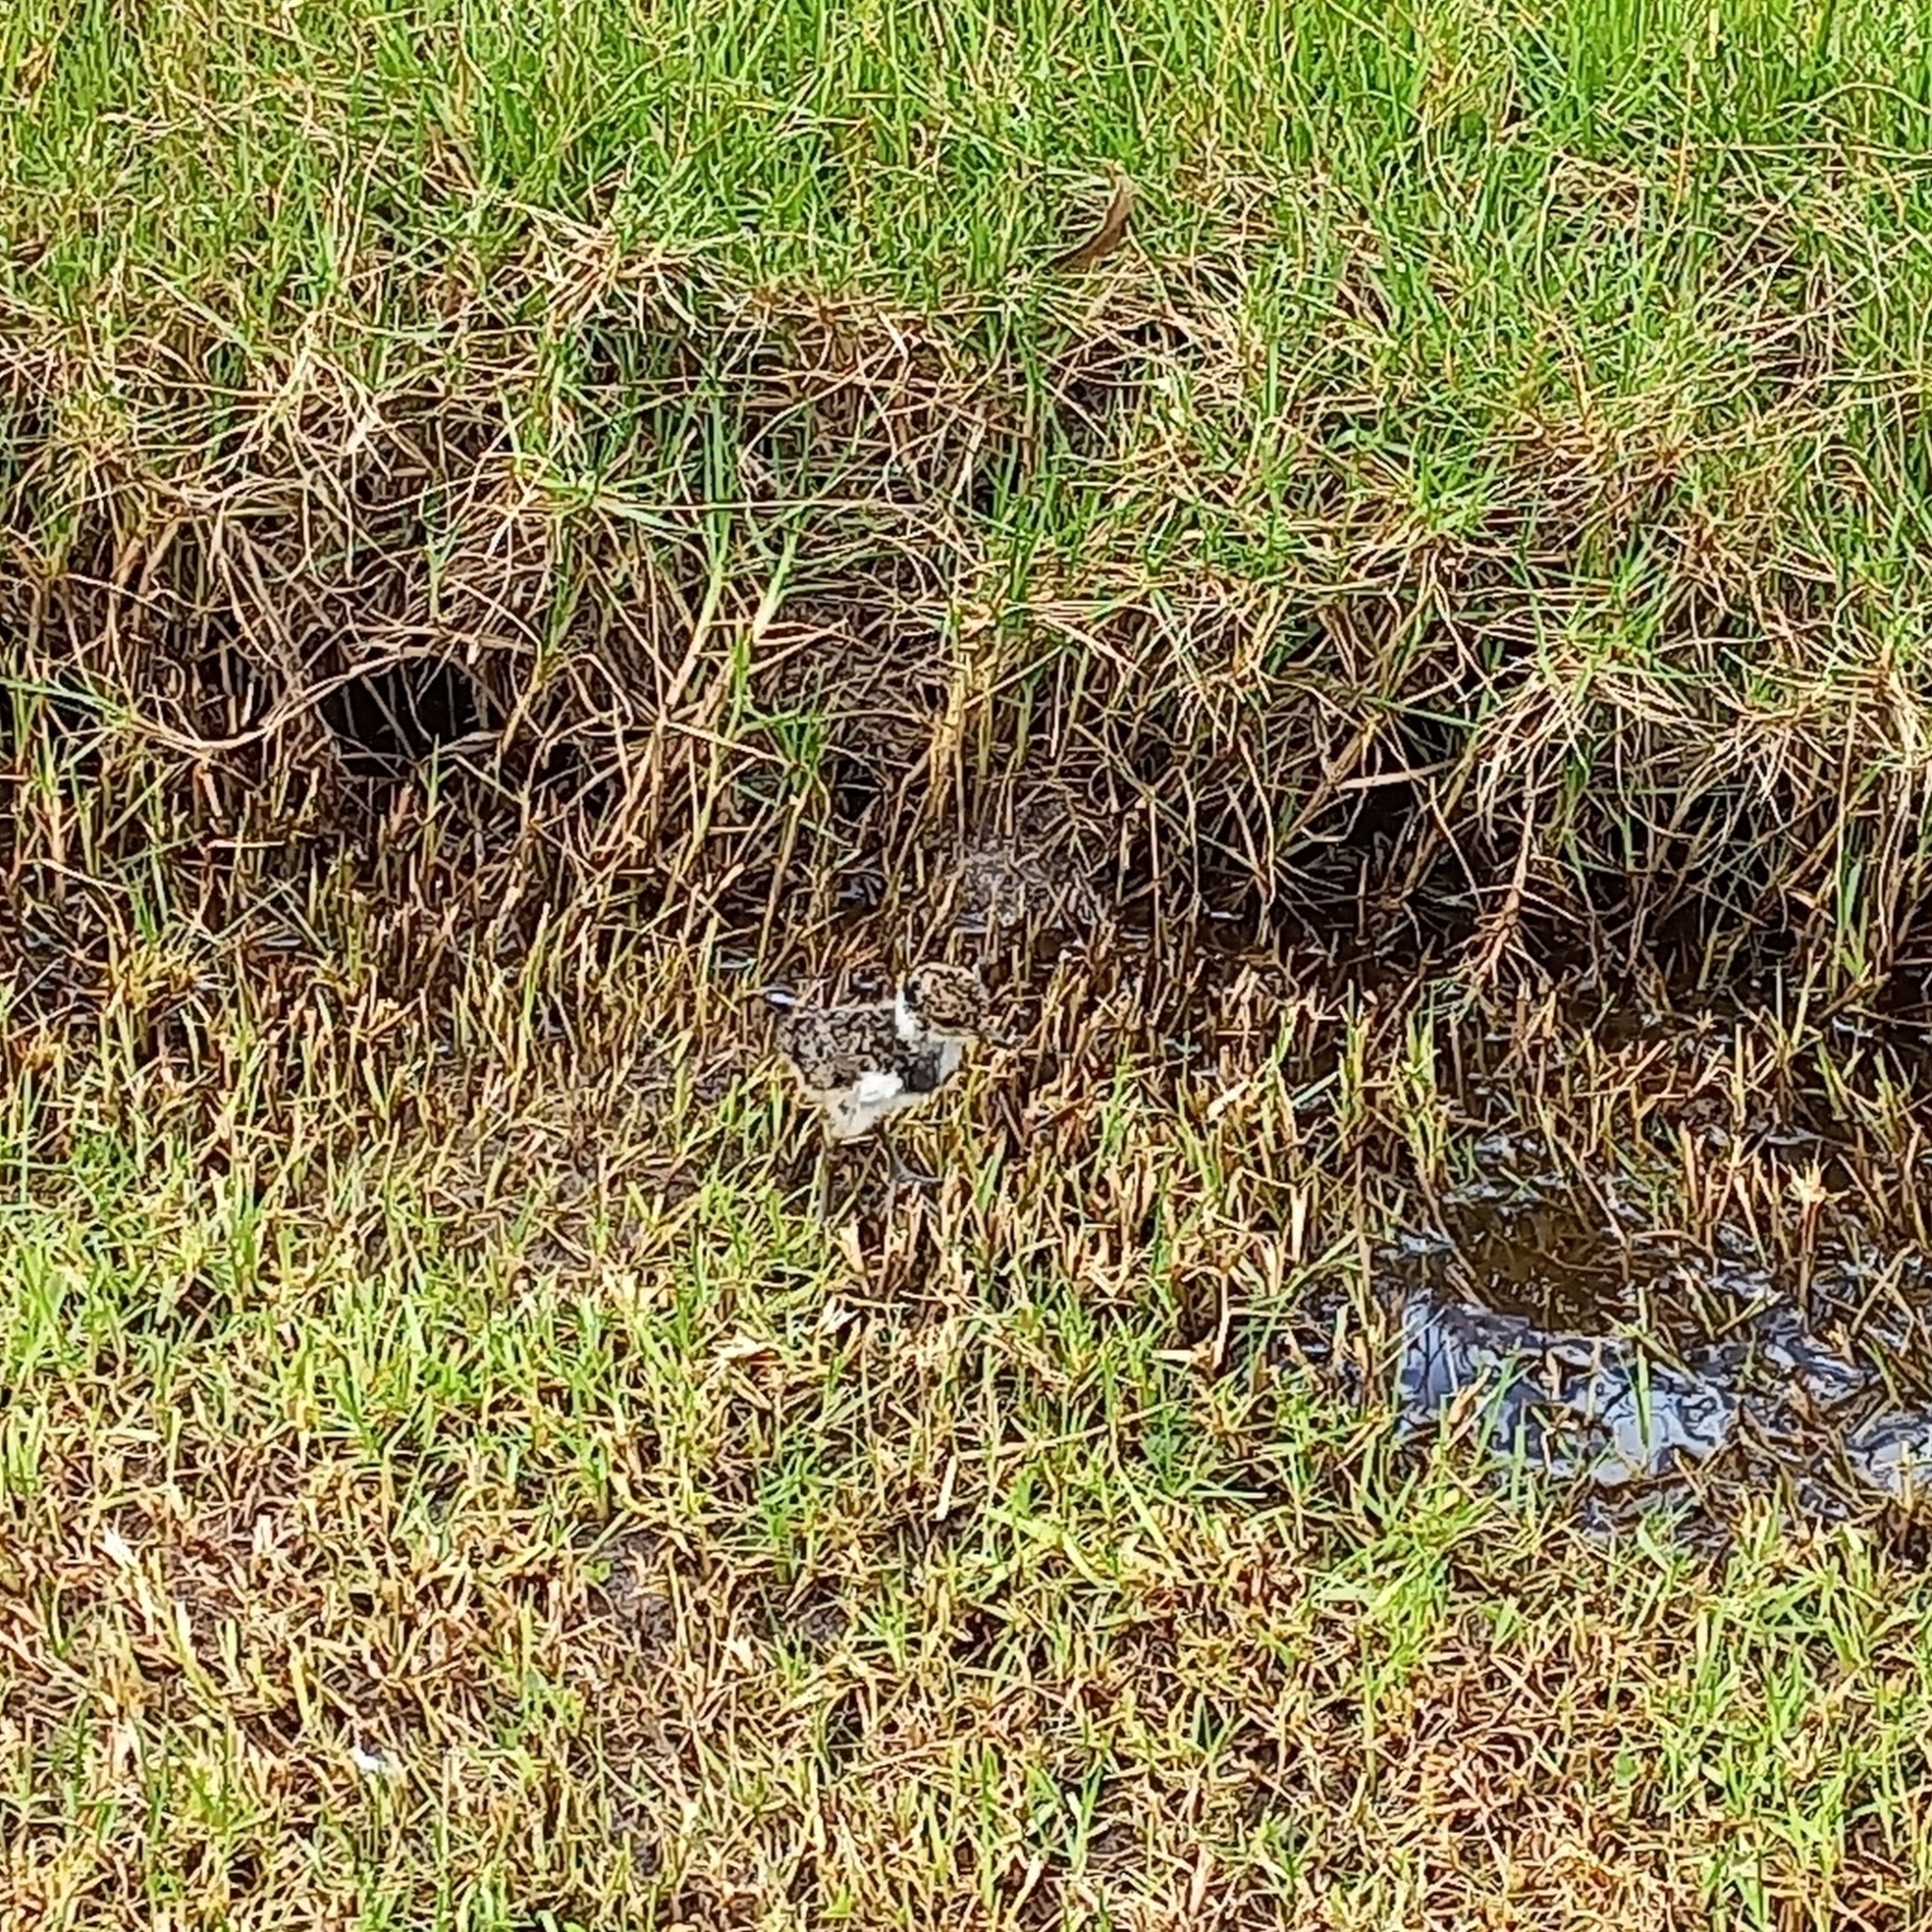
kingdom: Animalia
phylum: Chordata
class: Aves
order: Charadriiformes
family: Charadriidae
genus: Vanellus
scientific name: Vanellus chilensis
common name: Southern lapwing
